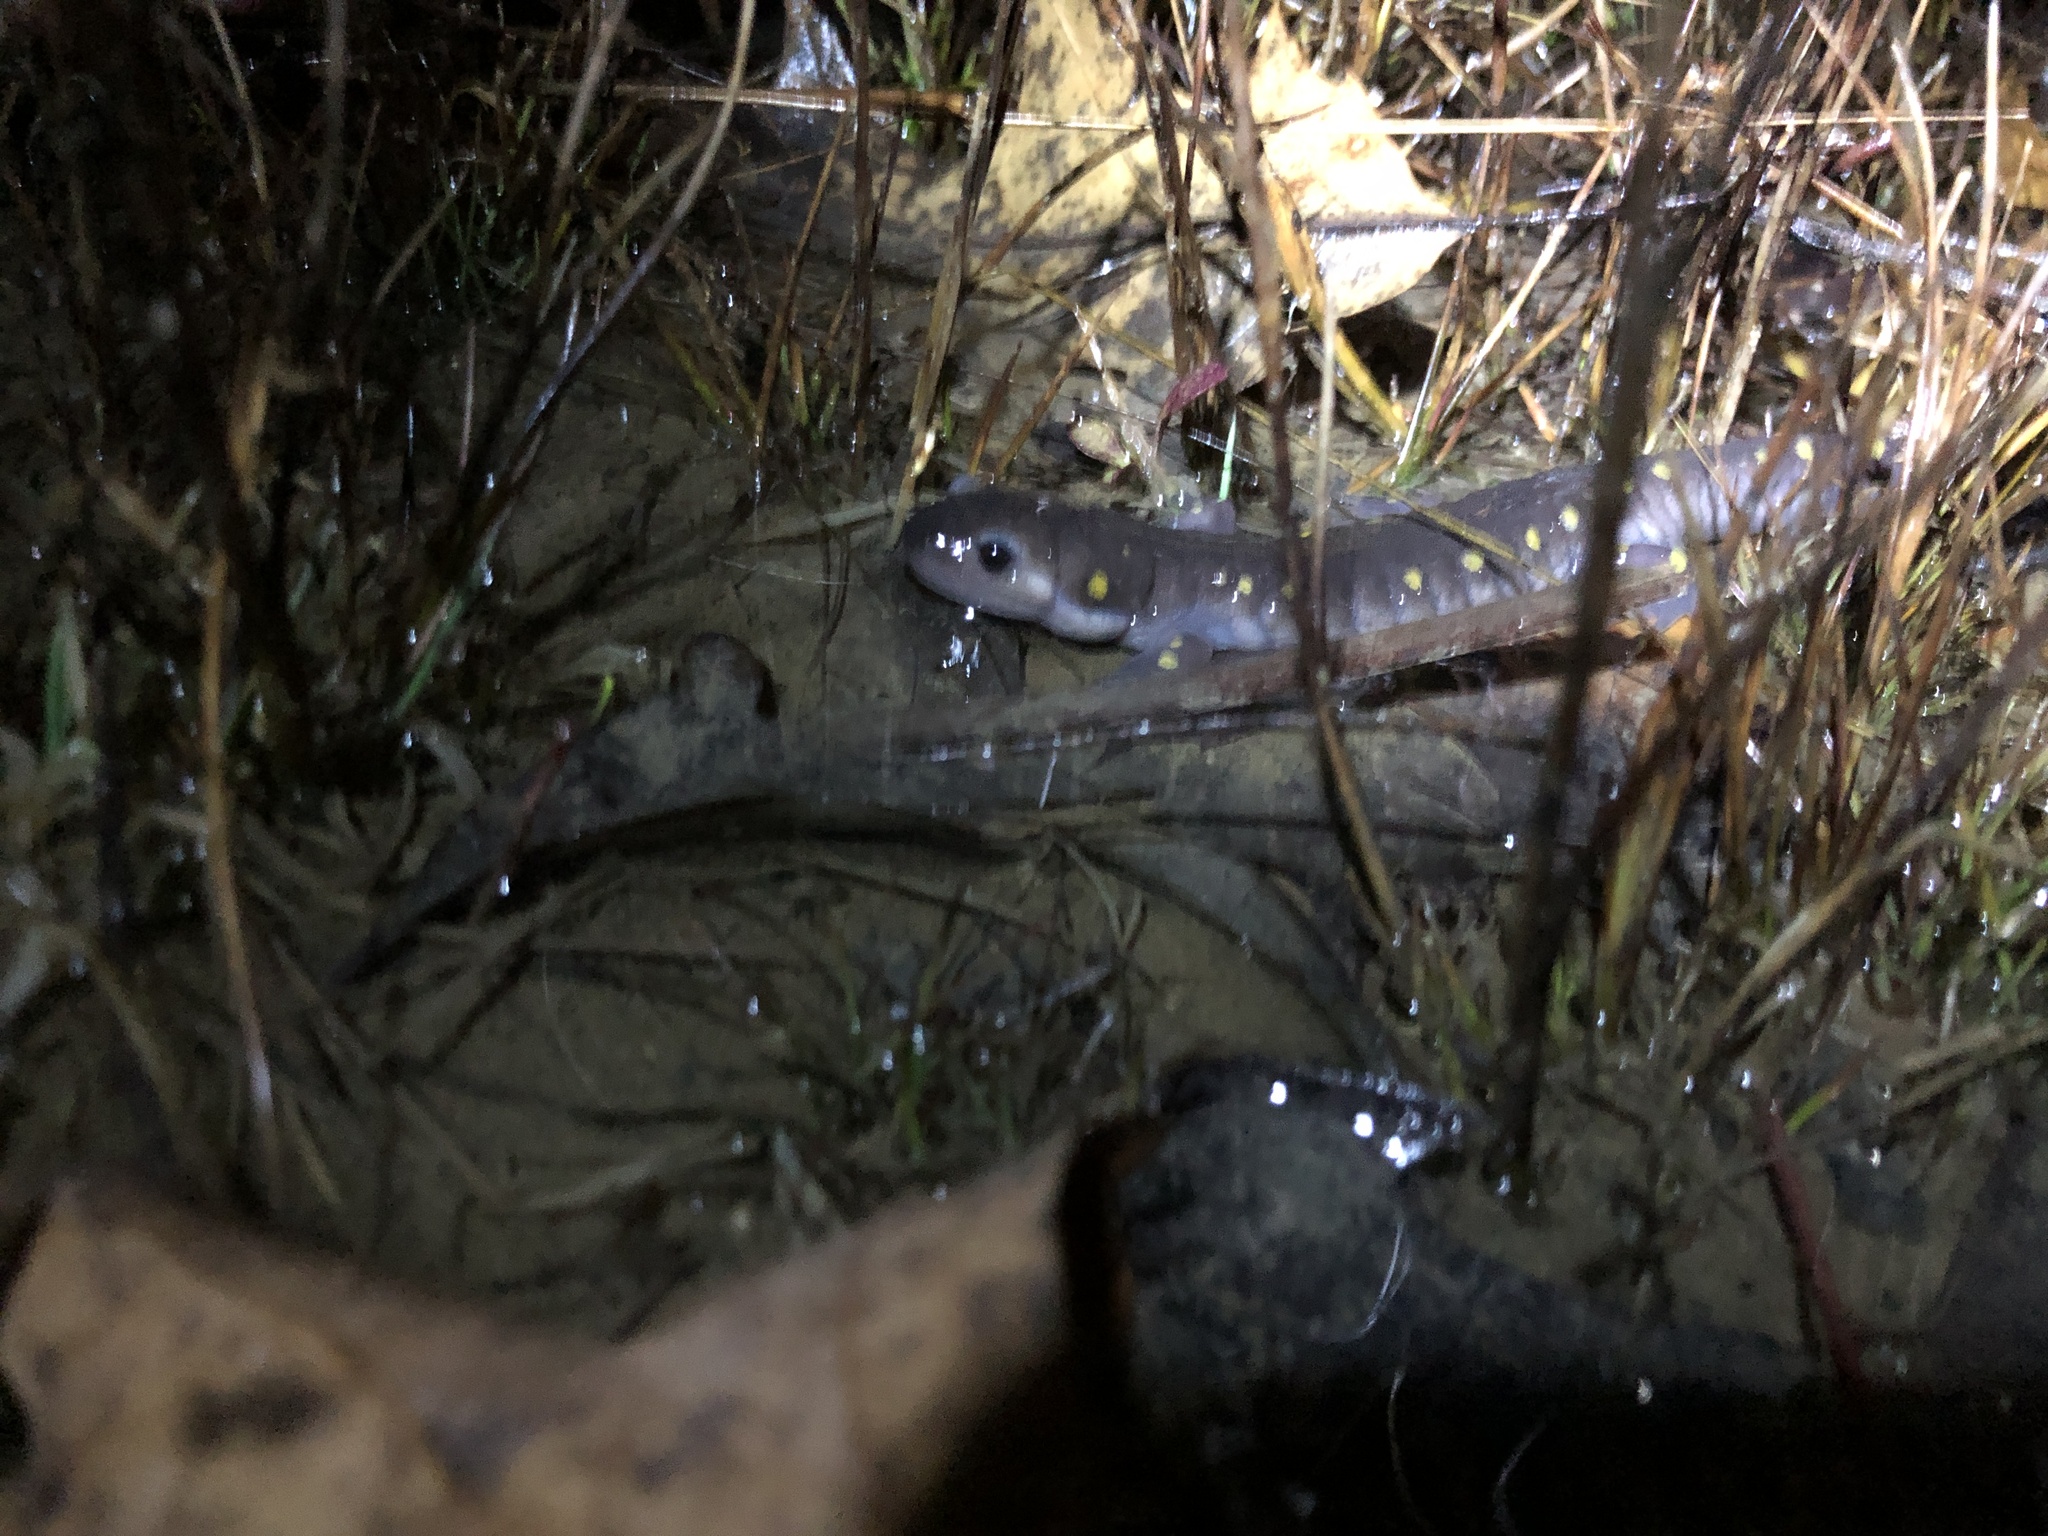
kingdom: Animalia
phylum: Chordata
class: Amphibia
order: Caudata
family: Ambystomatidae
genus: Ambystoma
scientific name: Ambystoma maculatum
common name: Spotted salamander
